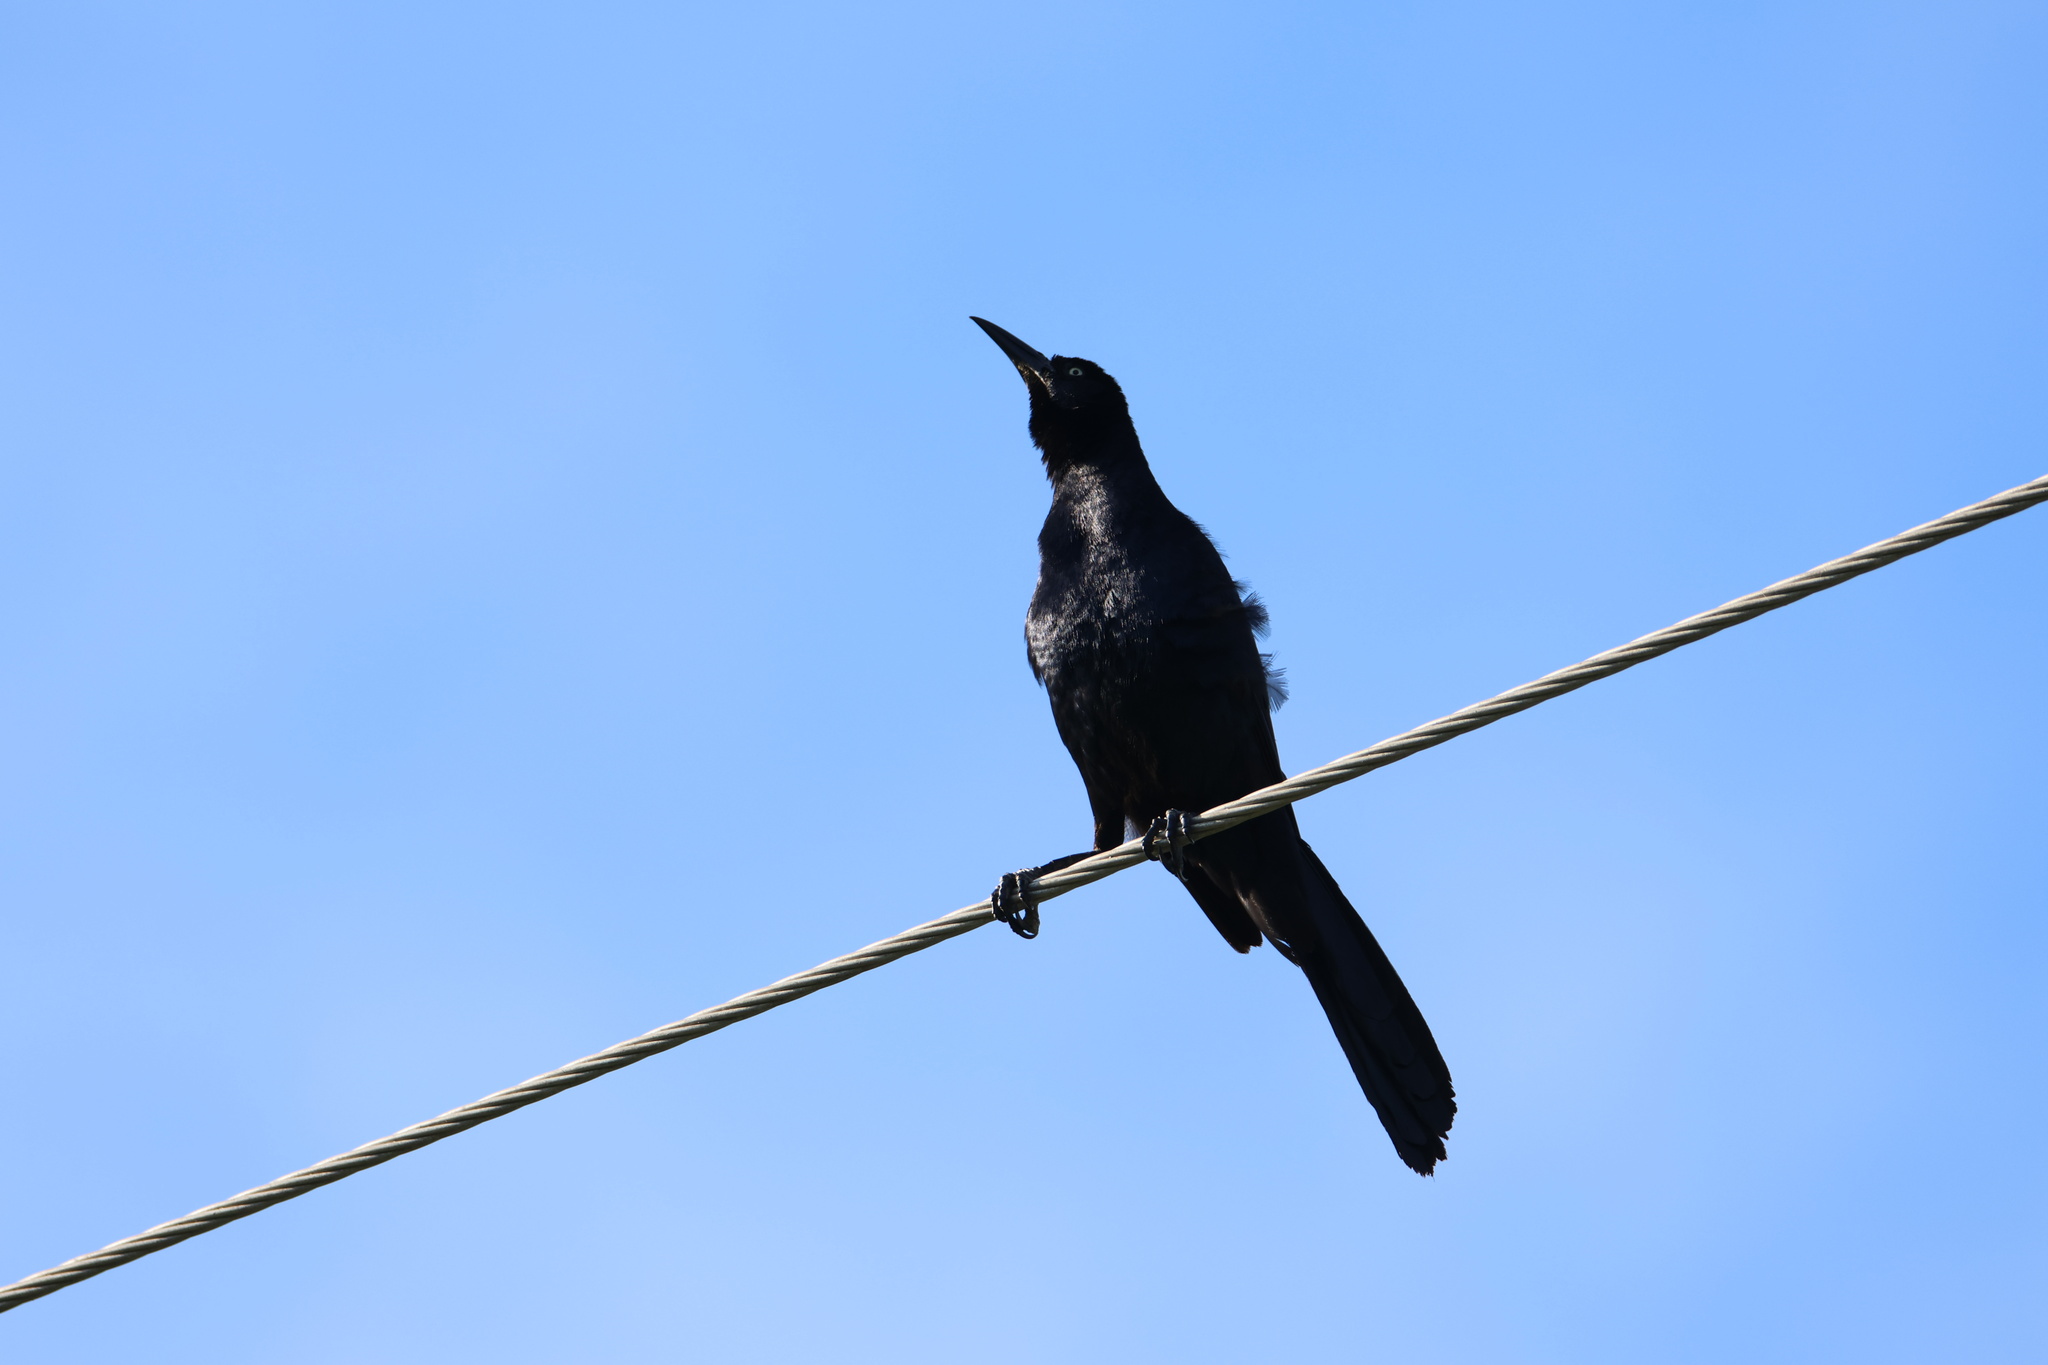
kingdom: Animalia
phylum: Chordata
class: Aves
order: Passeriformes
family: Icteridae
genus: Quiscalus
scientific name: Quiscalus mexicanus
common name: Great-tailed grackle
